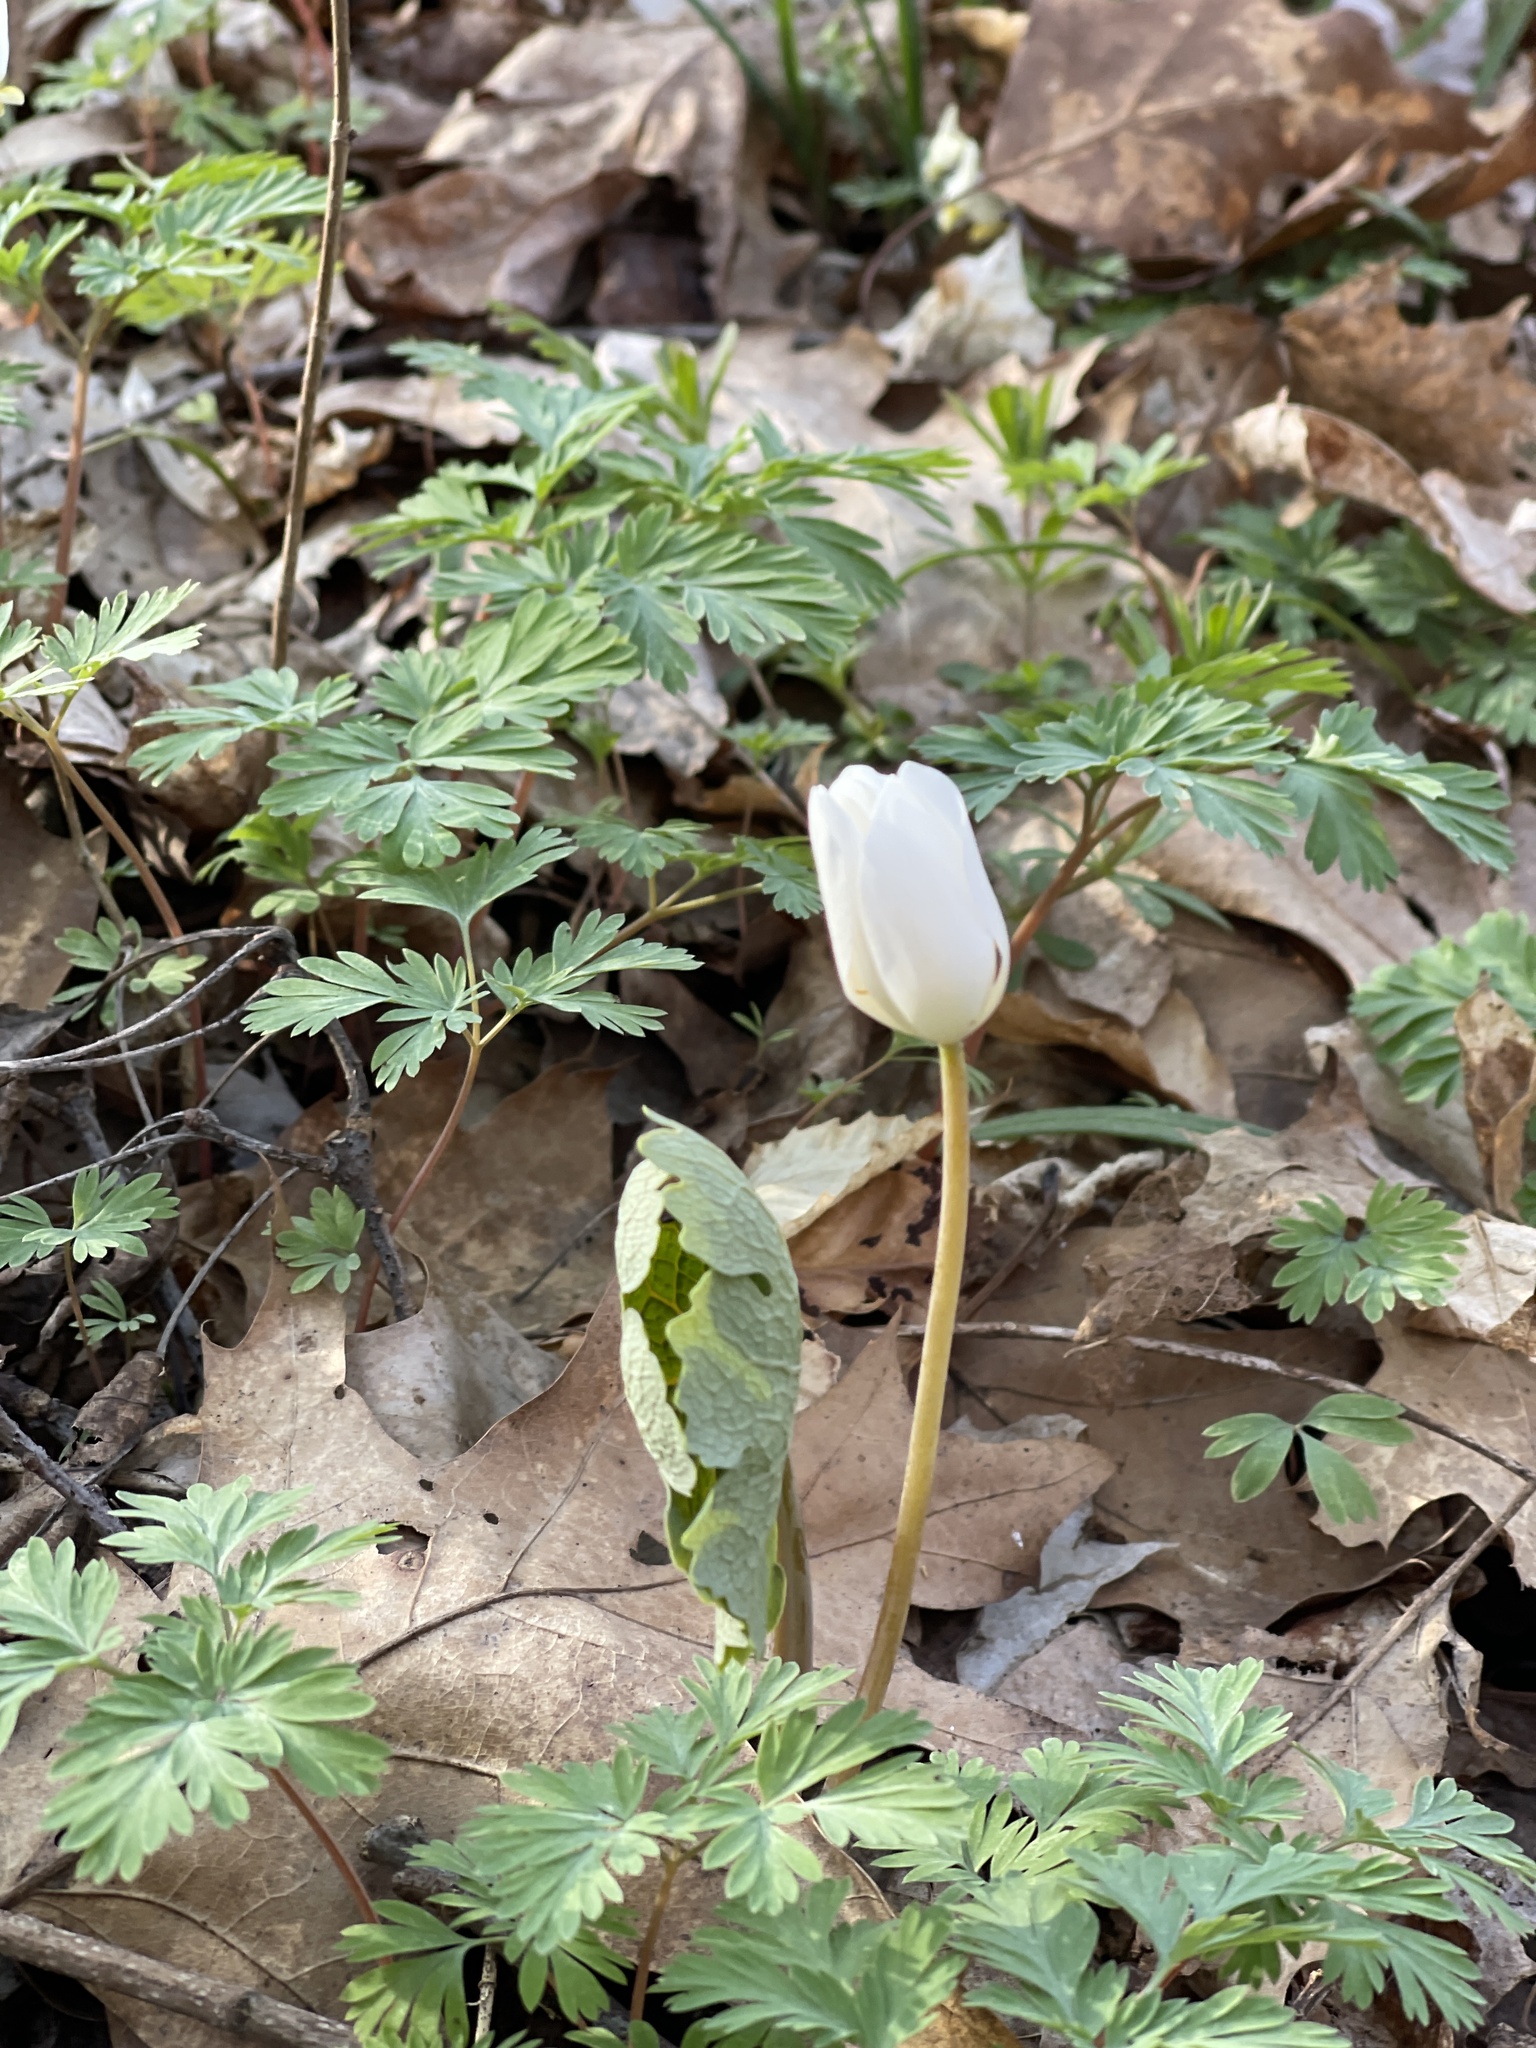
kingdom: Plantae
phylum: Tracheophyta
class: Magnoliopsida
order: Ranunculales
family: Papaveraceae
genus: Sanguinaria
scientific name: Sanguinaria canadensis
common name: Bloodroot
